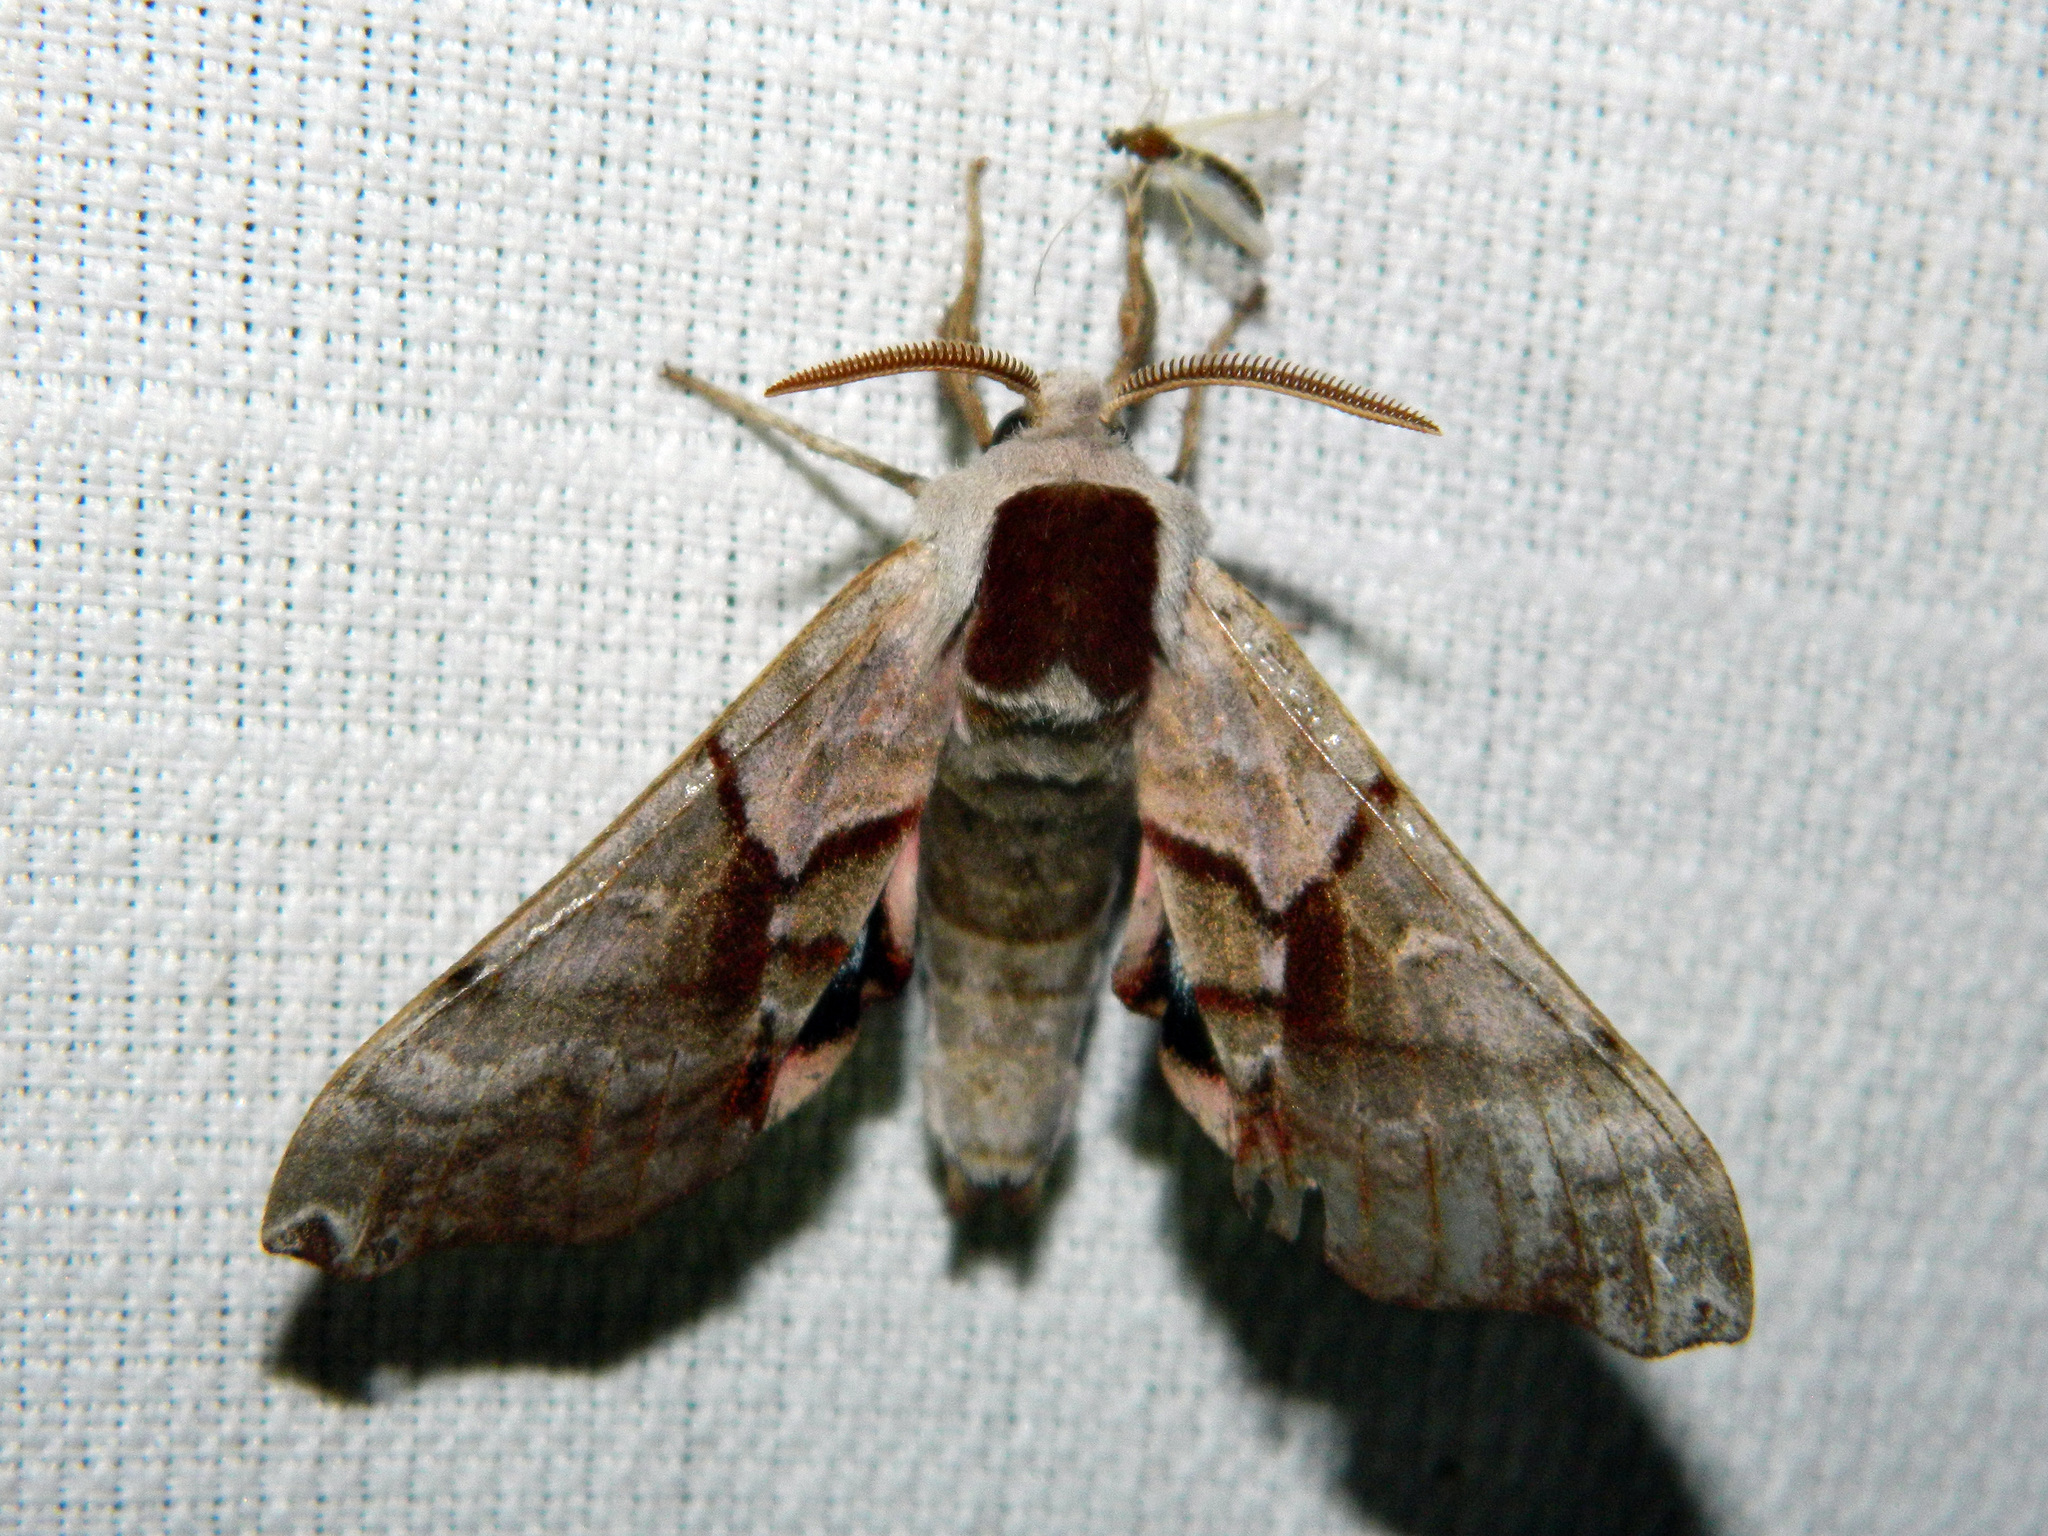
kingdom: Animalia
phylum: Arthropoda
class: Insecta
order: Lepidoptera
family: Sphingidae
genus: Smerinthus
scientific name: Smerinthus jamaicensis
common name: Twin spotted sphinx
